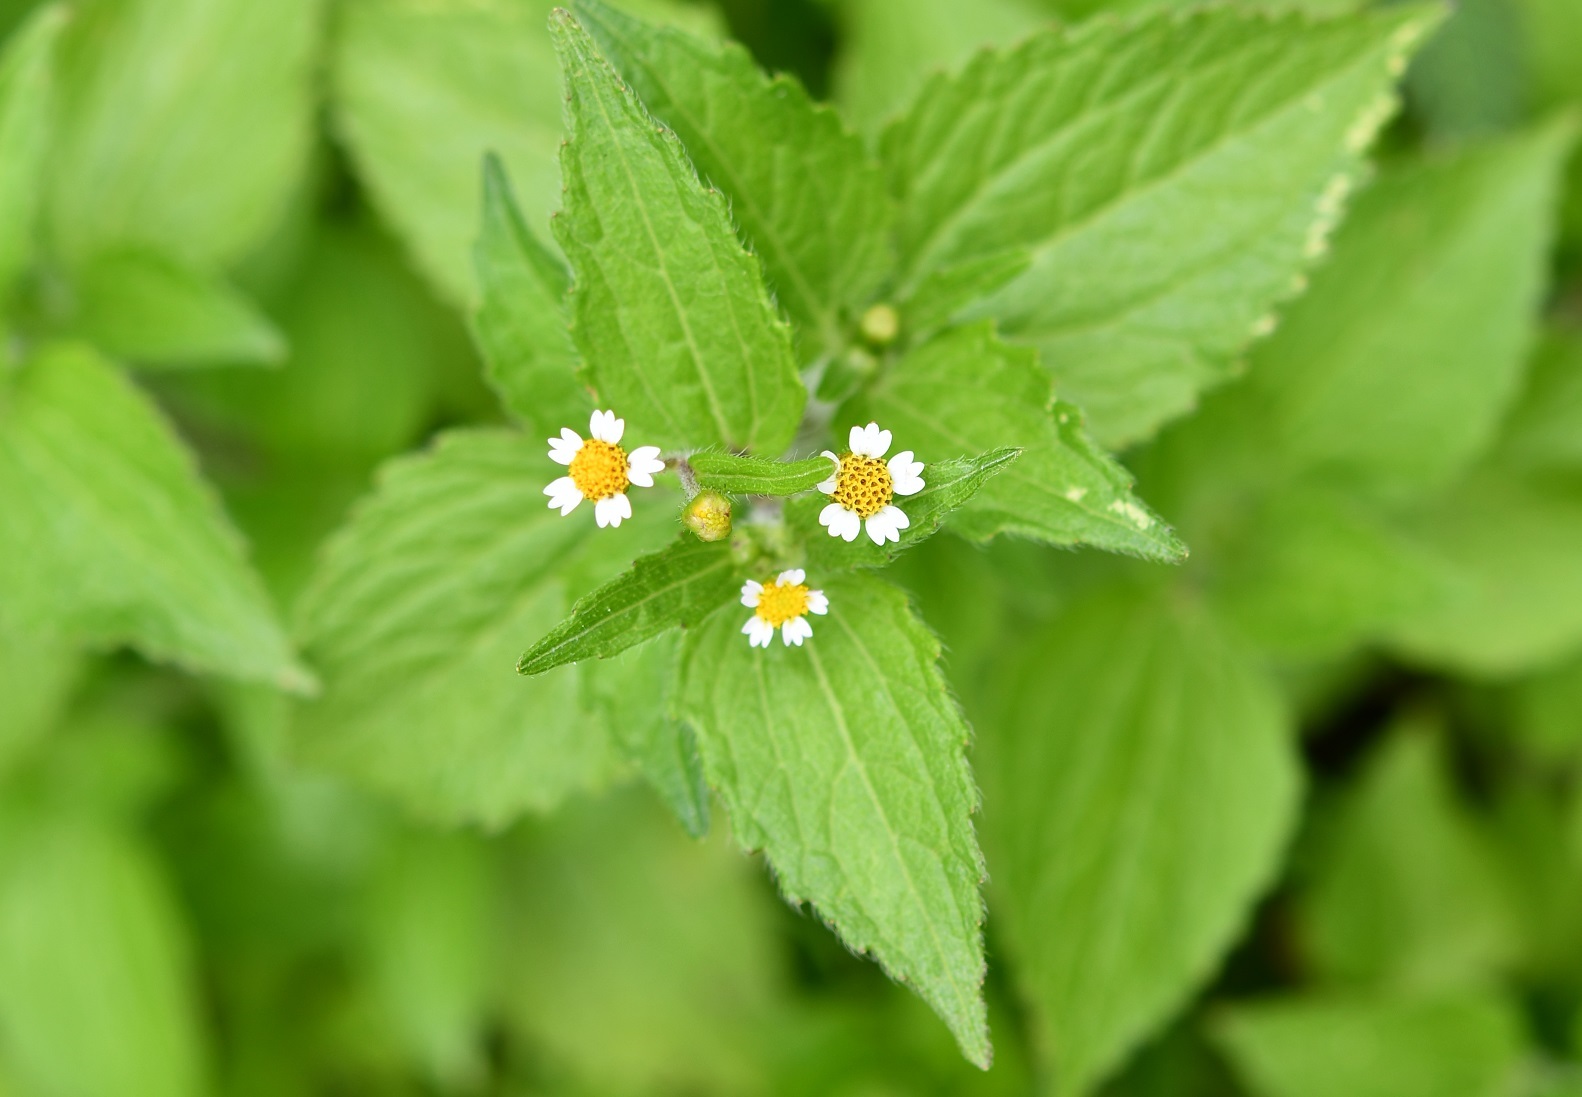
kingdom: Plantae
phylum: Tracheophyta
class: Magnoliopsida
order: Asterales
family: Asteraceae
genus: Galinsoga
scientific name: Galinsoga quadriradiata
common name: Shaggy soldier
